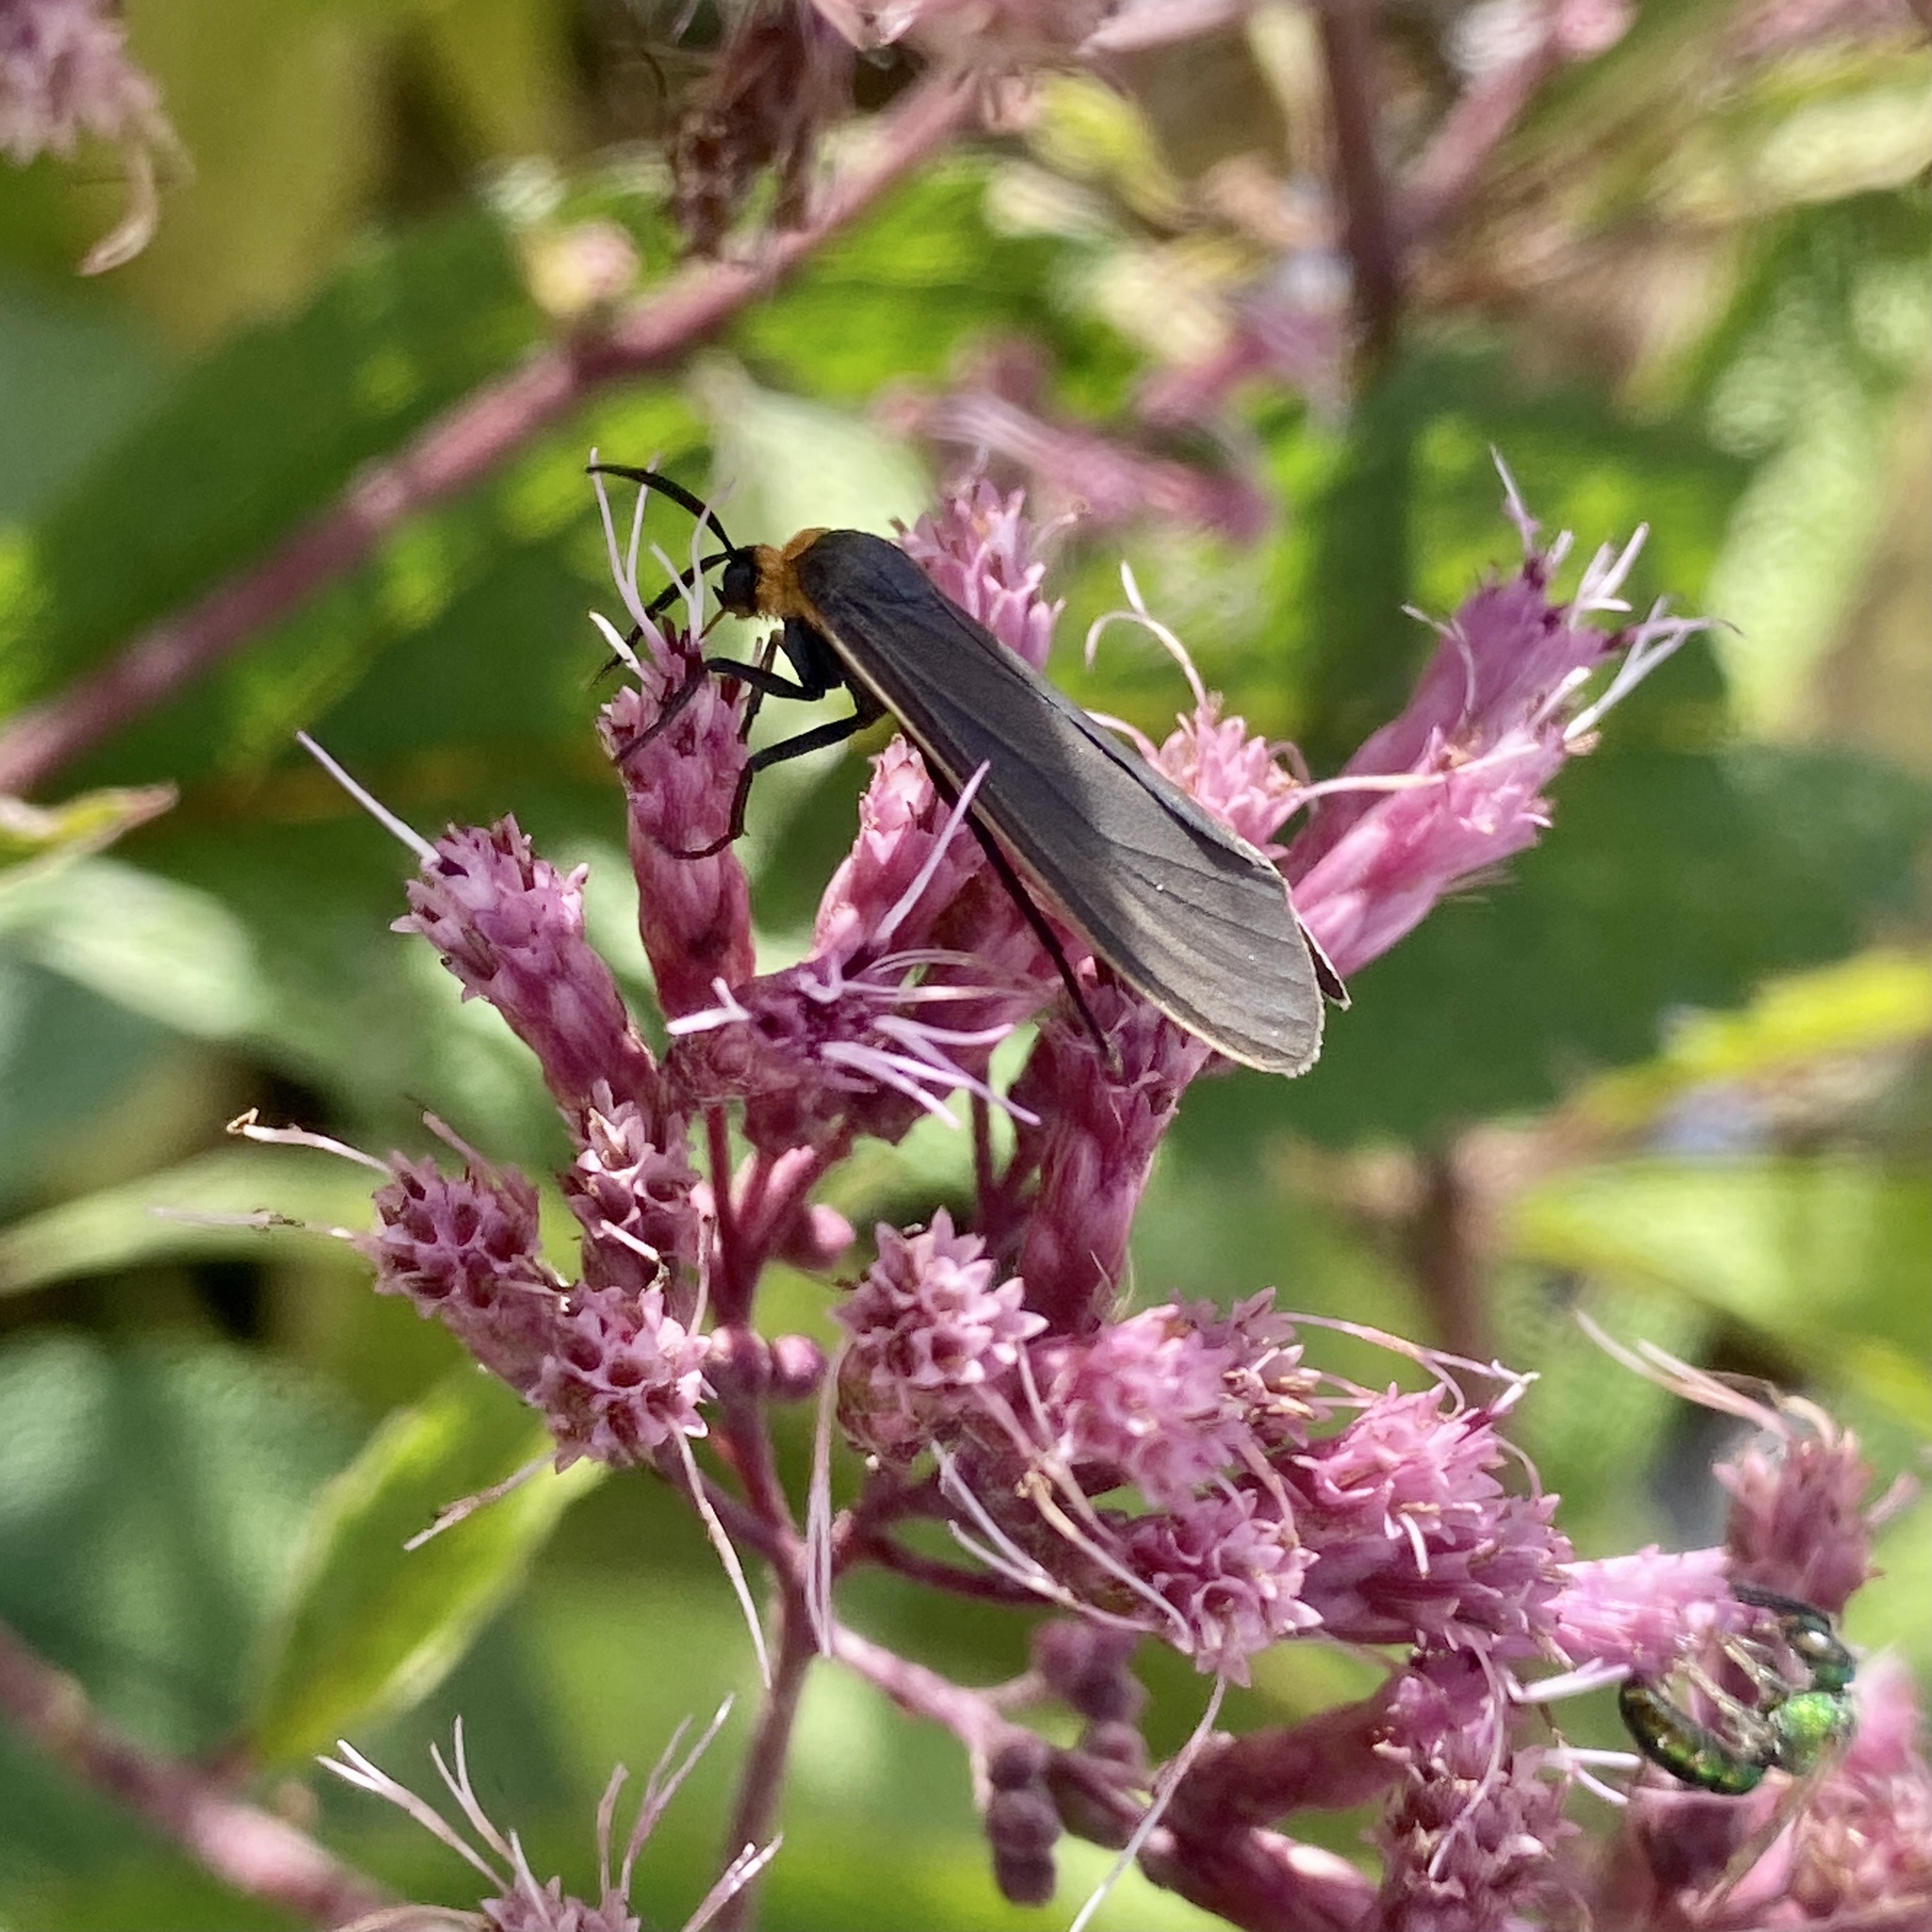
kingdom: Animalia
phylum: Arthropoda
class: Insecta
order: Lepidoptera
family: Erebidae
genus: Cisseps
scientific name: Cisseps fulvicollis
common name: Yellow-collared scape moth
